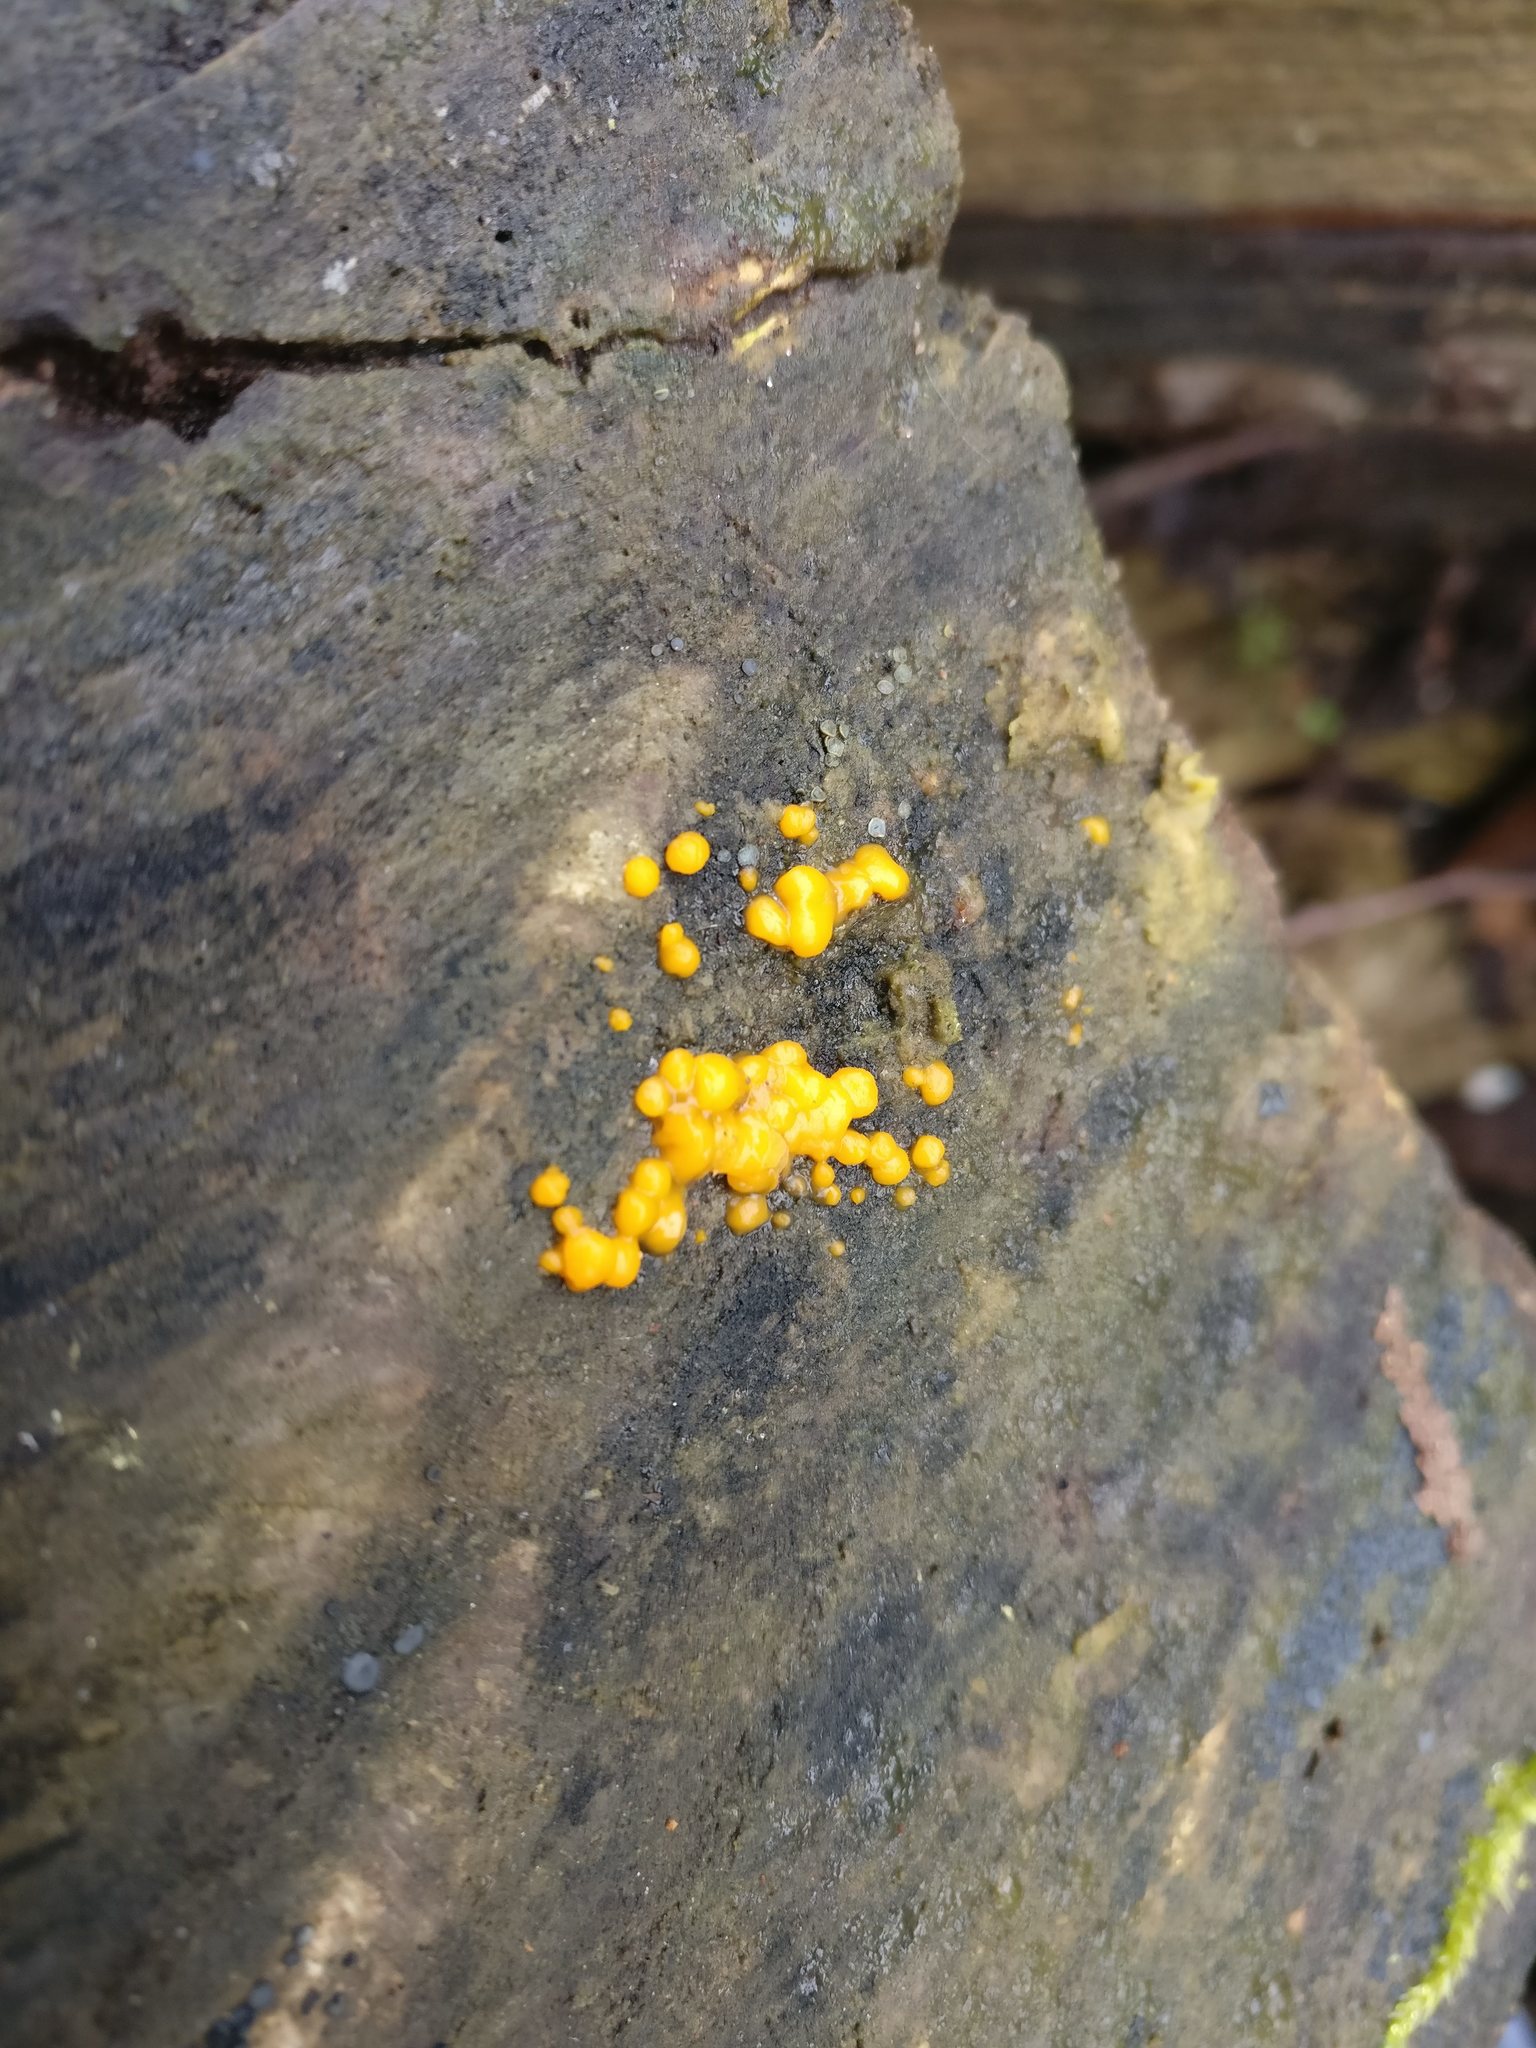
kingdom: Fungi
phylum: Basidiomycota
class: Dacrymycetes
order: Dacrymycetales
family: Dacrymycetaceae
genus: Dacrymyces
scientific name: Dacrymyces stillatus
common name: Common jelly spot
